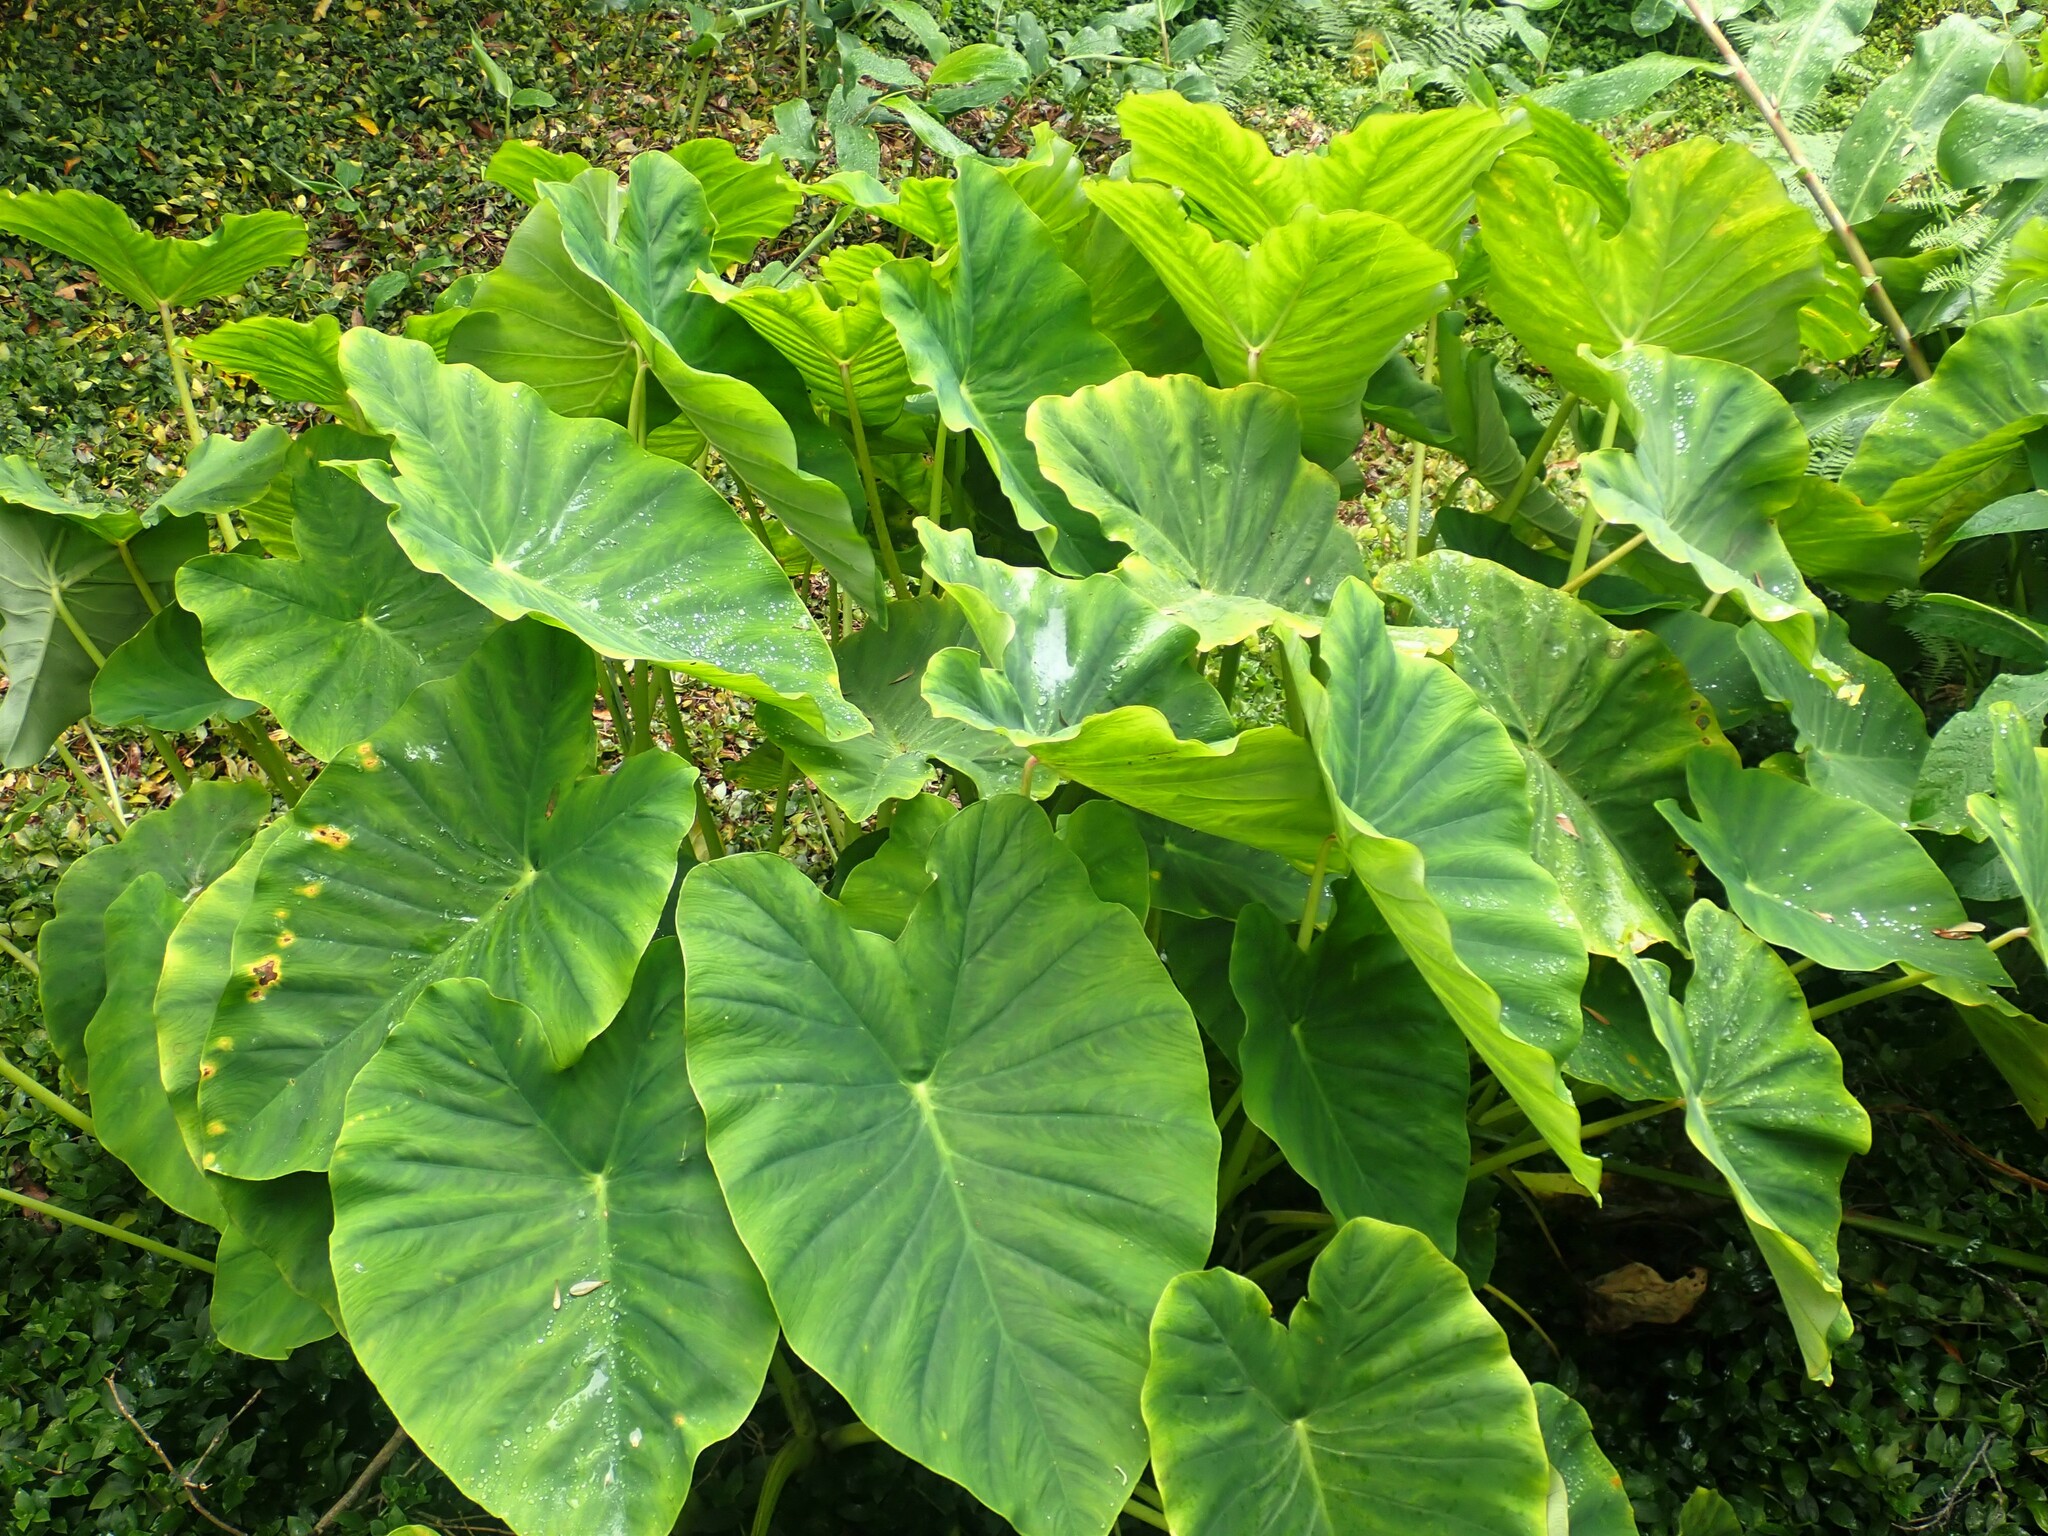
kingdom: Plantae
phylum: Tracheophyta
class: Liliopsida
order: Alismatales
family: Araceae
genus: Colocasia
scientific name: Colocasia esculenta
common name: Taro
